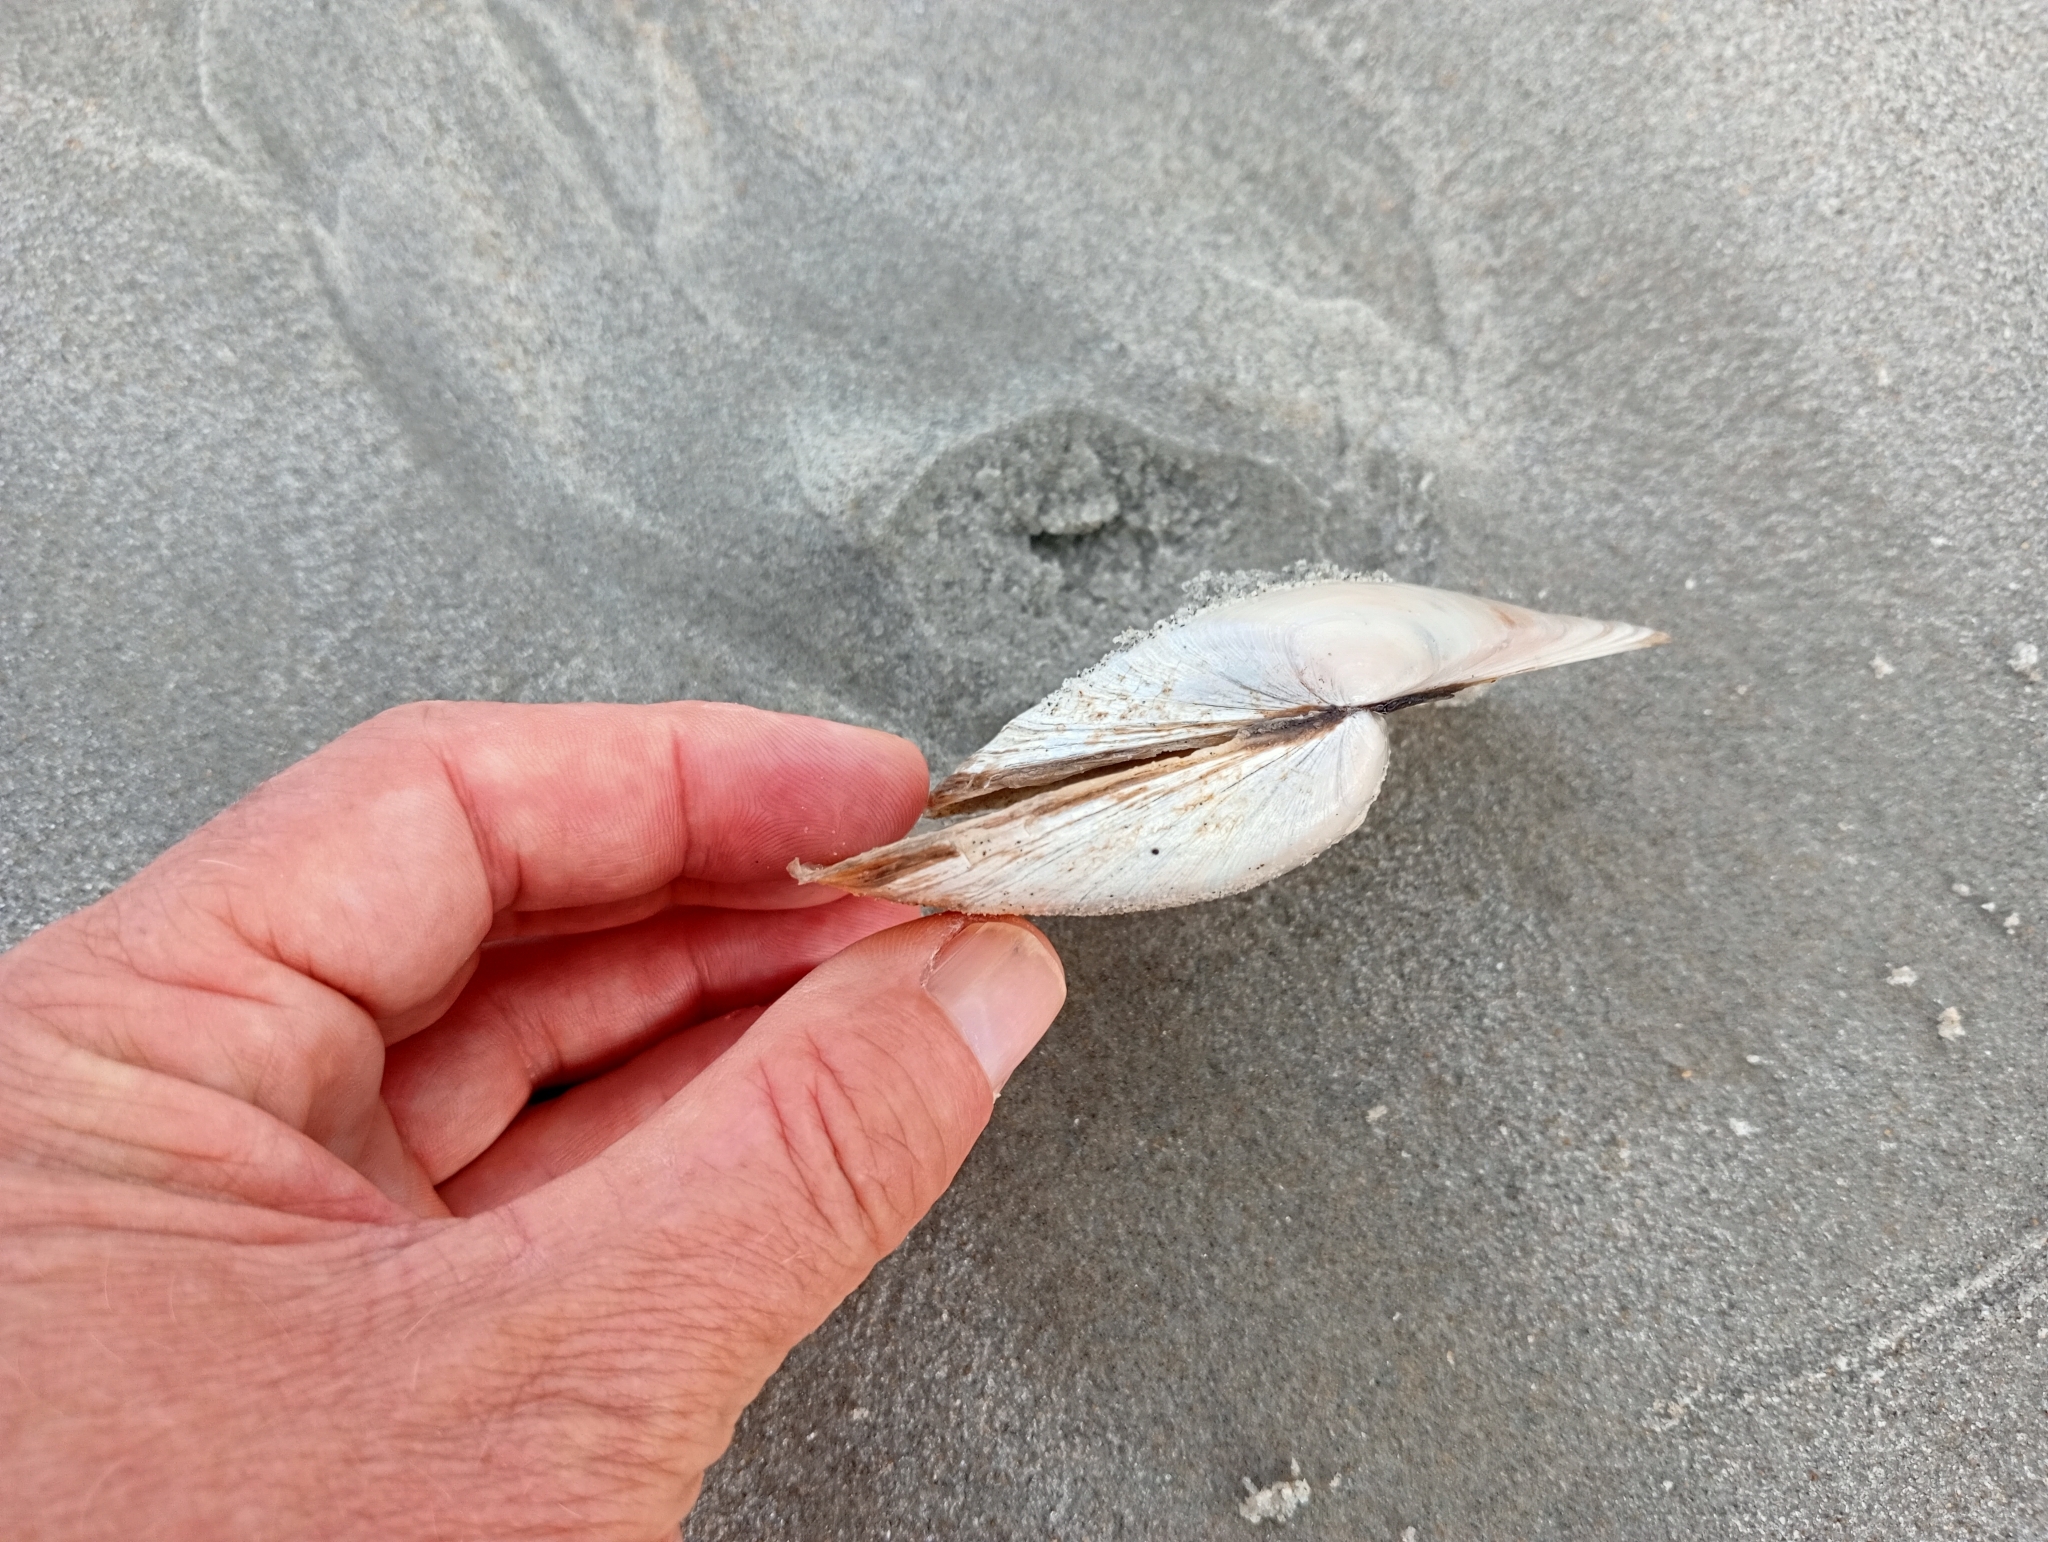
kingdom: Animalia
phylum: Mollusca
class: Bivalvia
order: Venerida
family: Mesodesmatidae
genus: Paphies
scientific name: Paphies donacina
